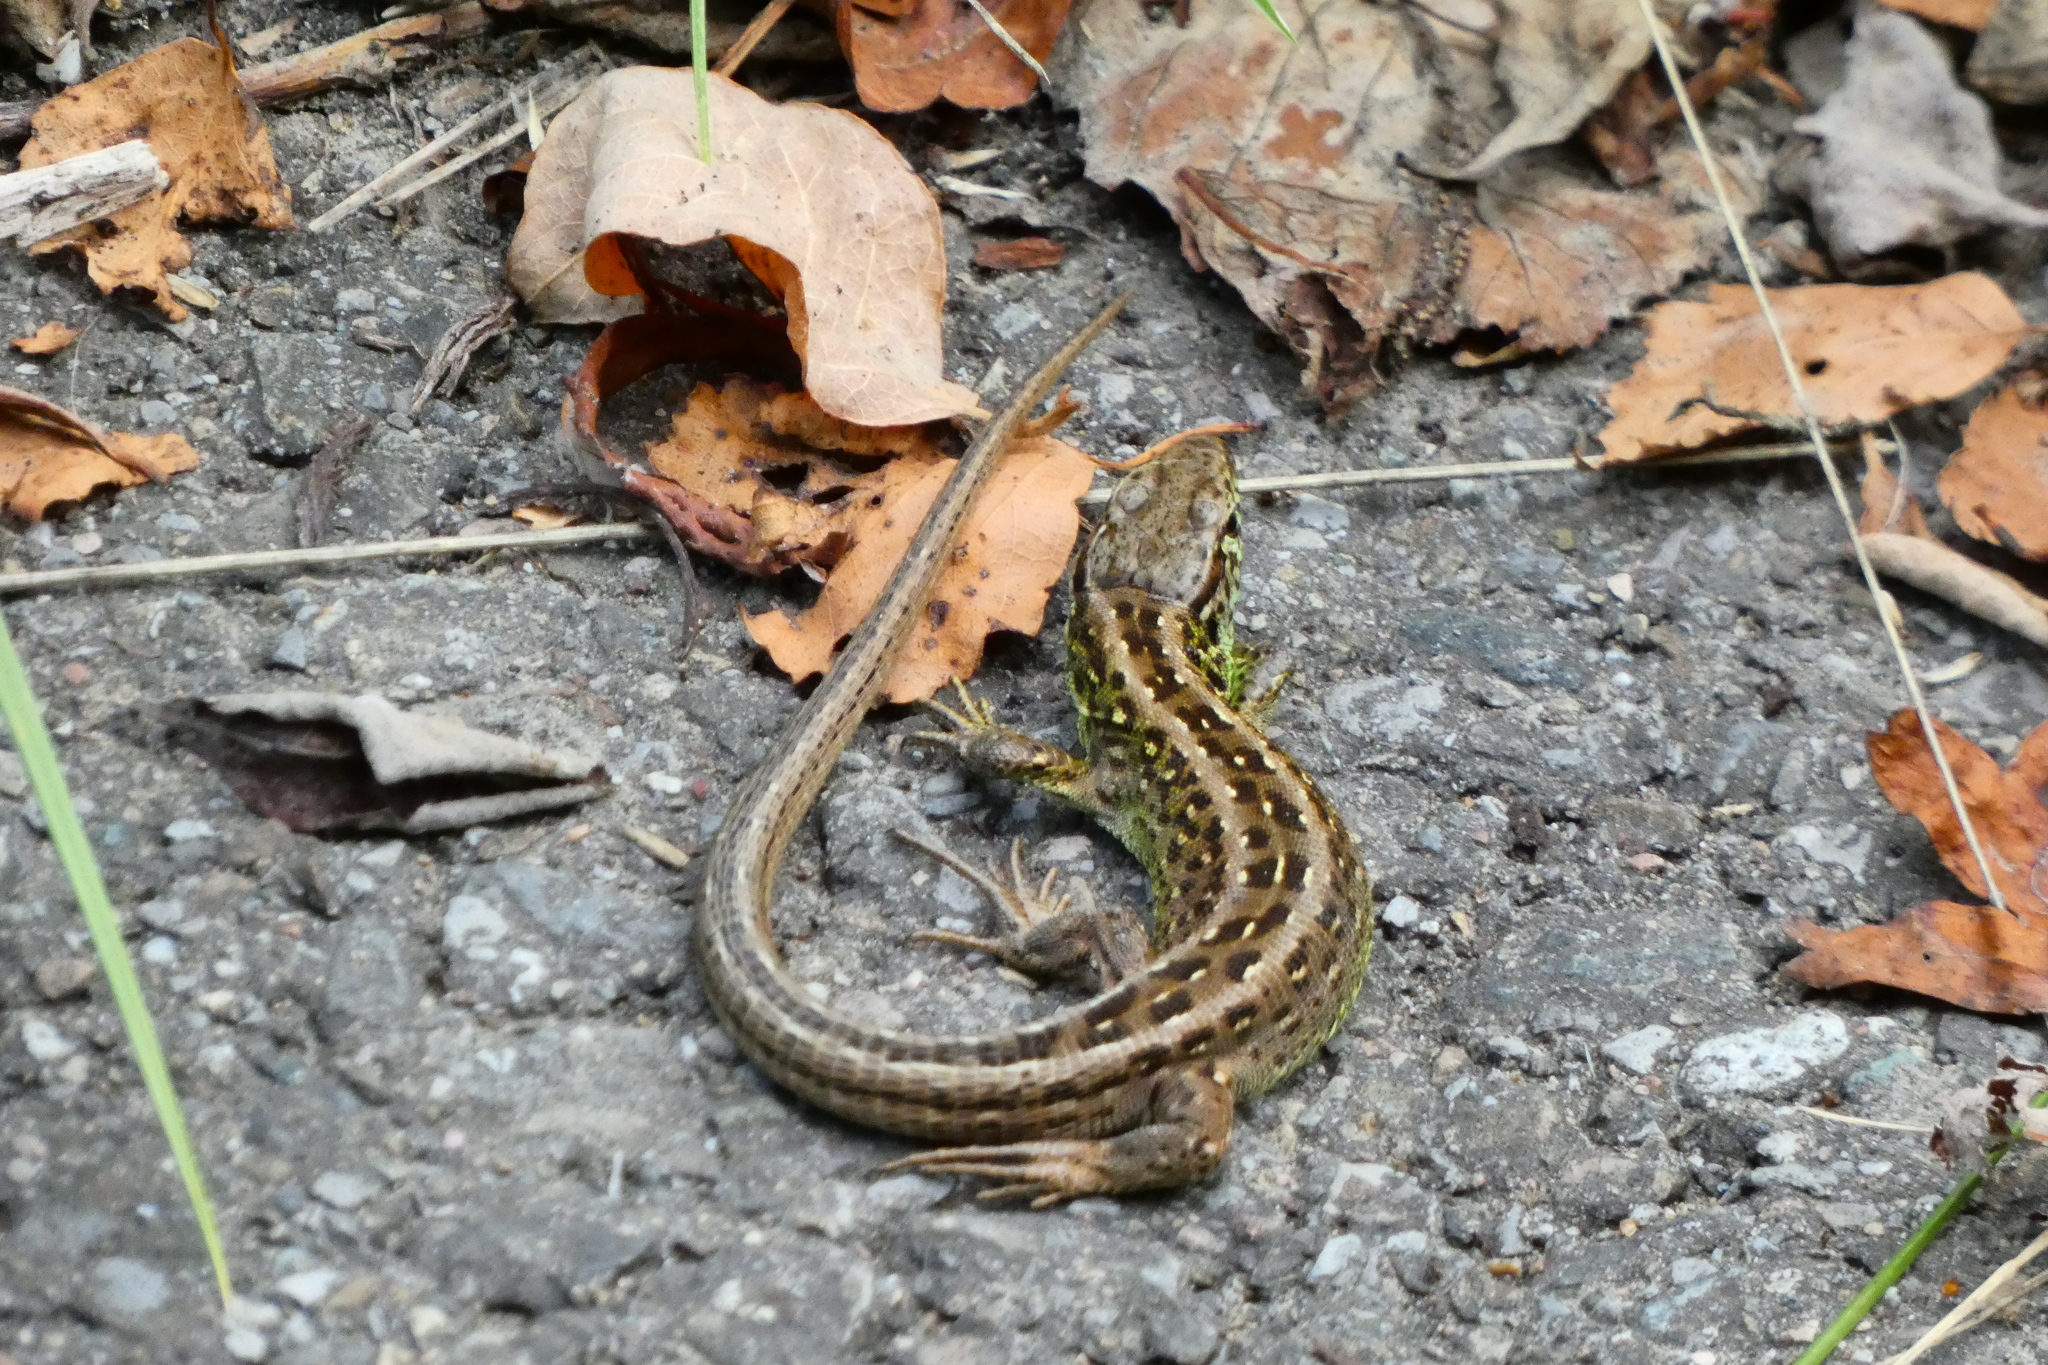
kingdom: Animalia
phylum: Chordata
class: Squamata
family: Lacertidae
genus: Lacerta
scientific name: Lacerta agilis
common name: Sand lizard
